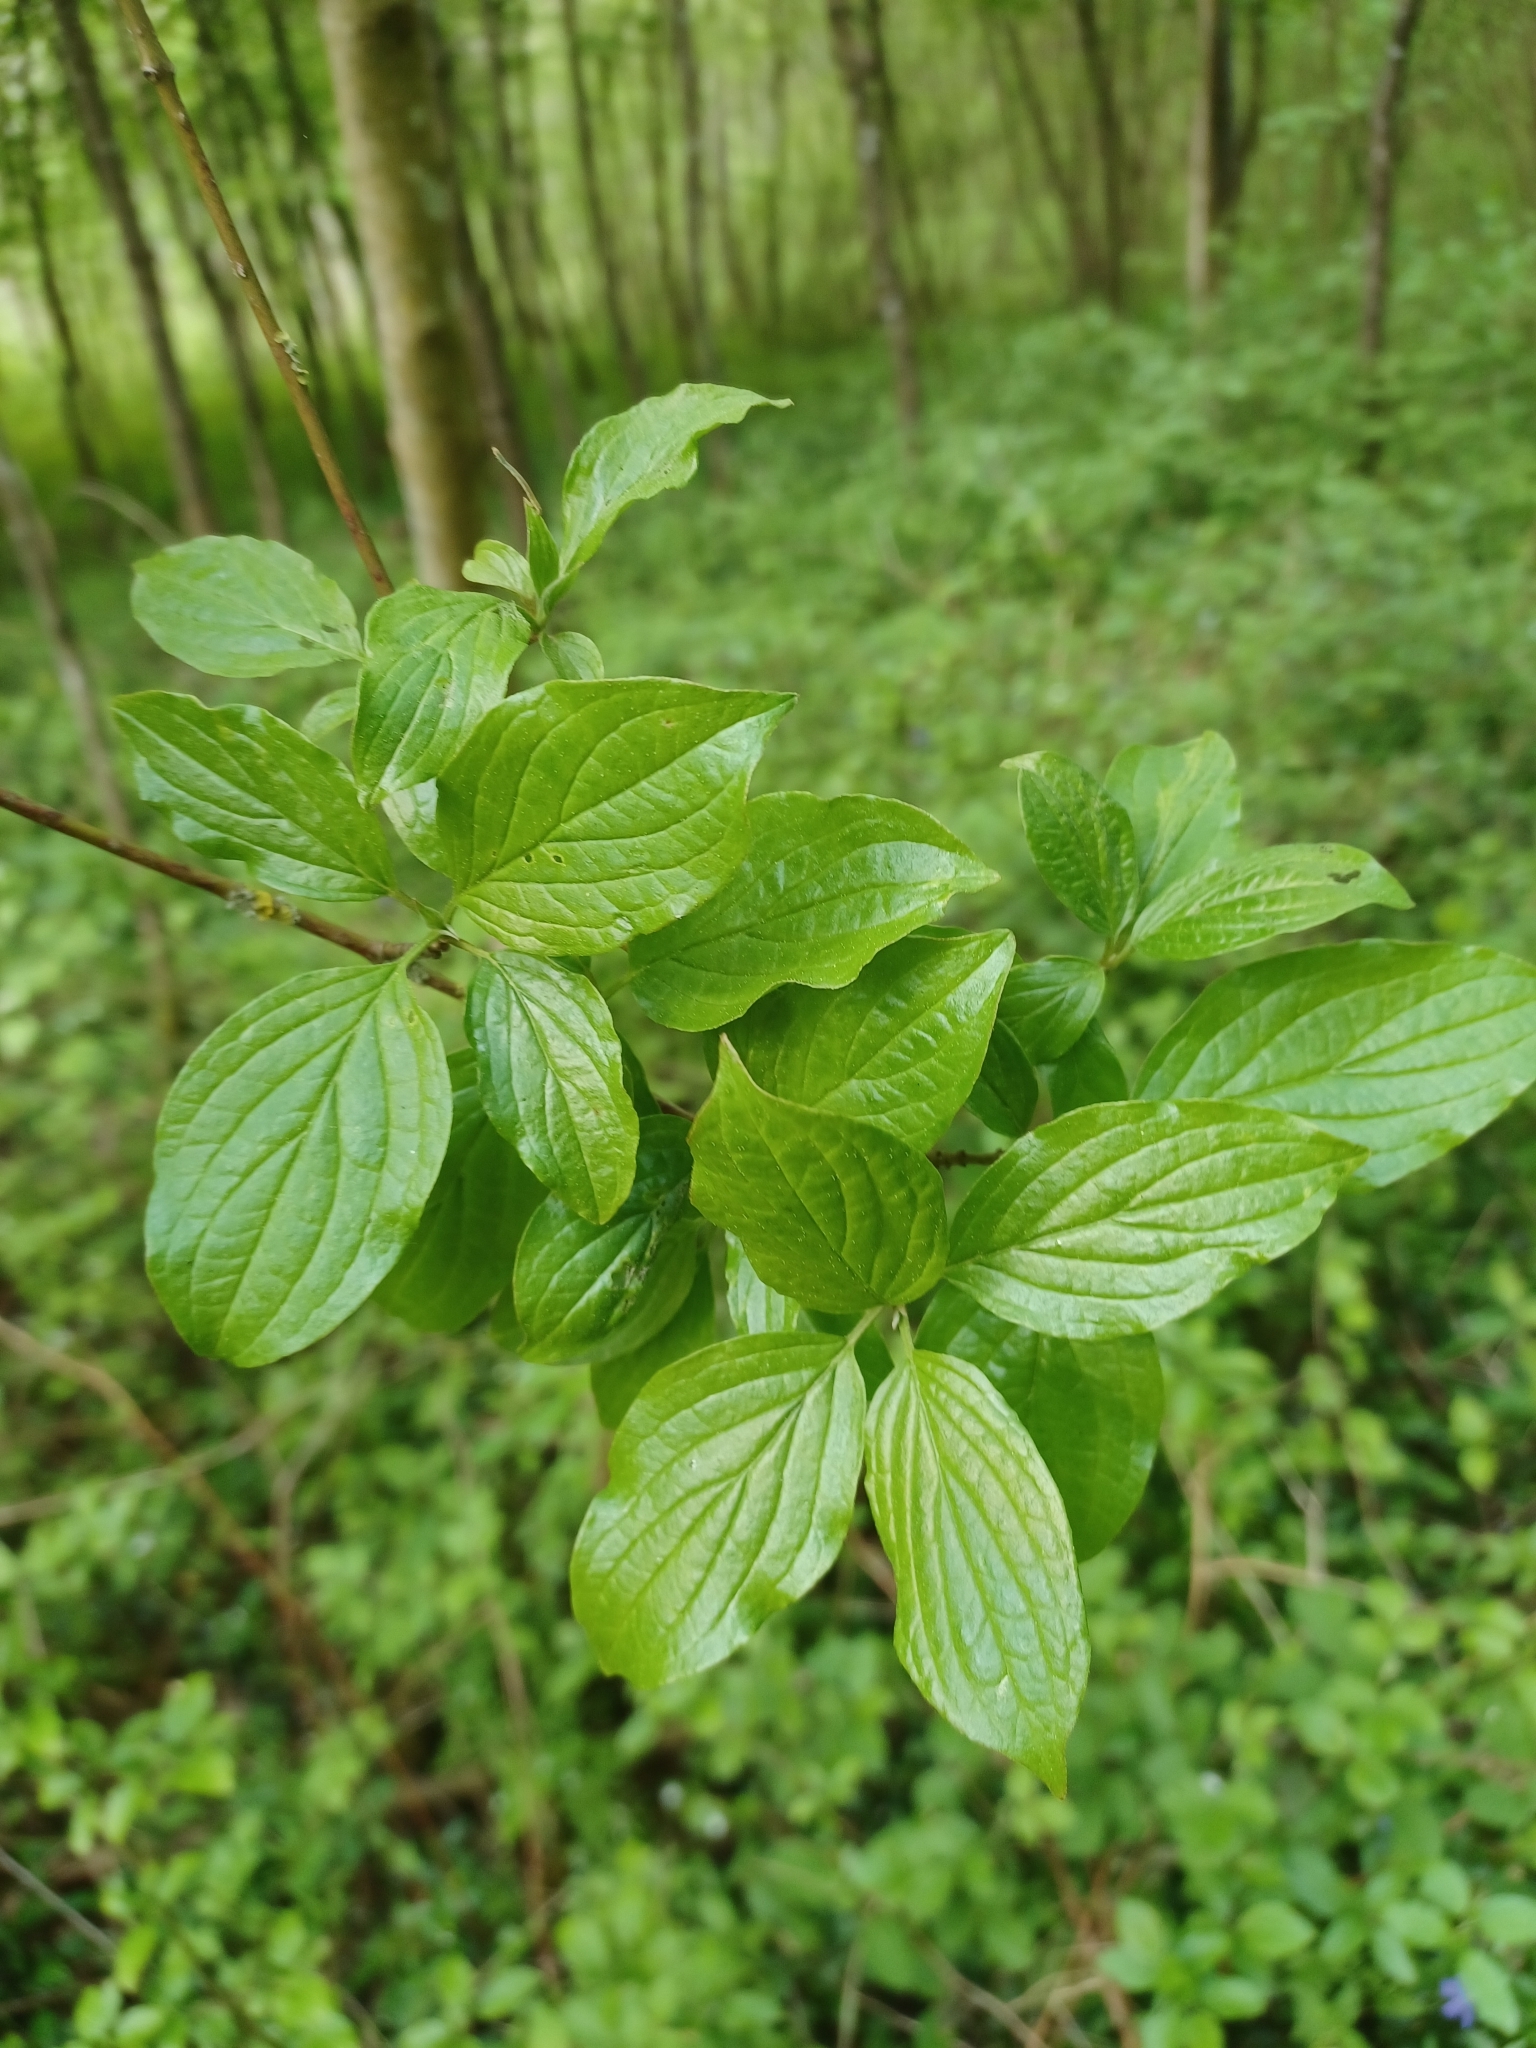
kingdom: Plantae
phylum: Tracheophyta
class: Magnoliopsida
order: Cornales
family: Cornaceae
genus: Cornus
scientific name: Cornus sanguinea
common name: Dogwood
